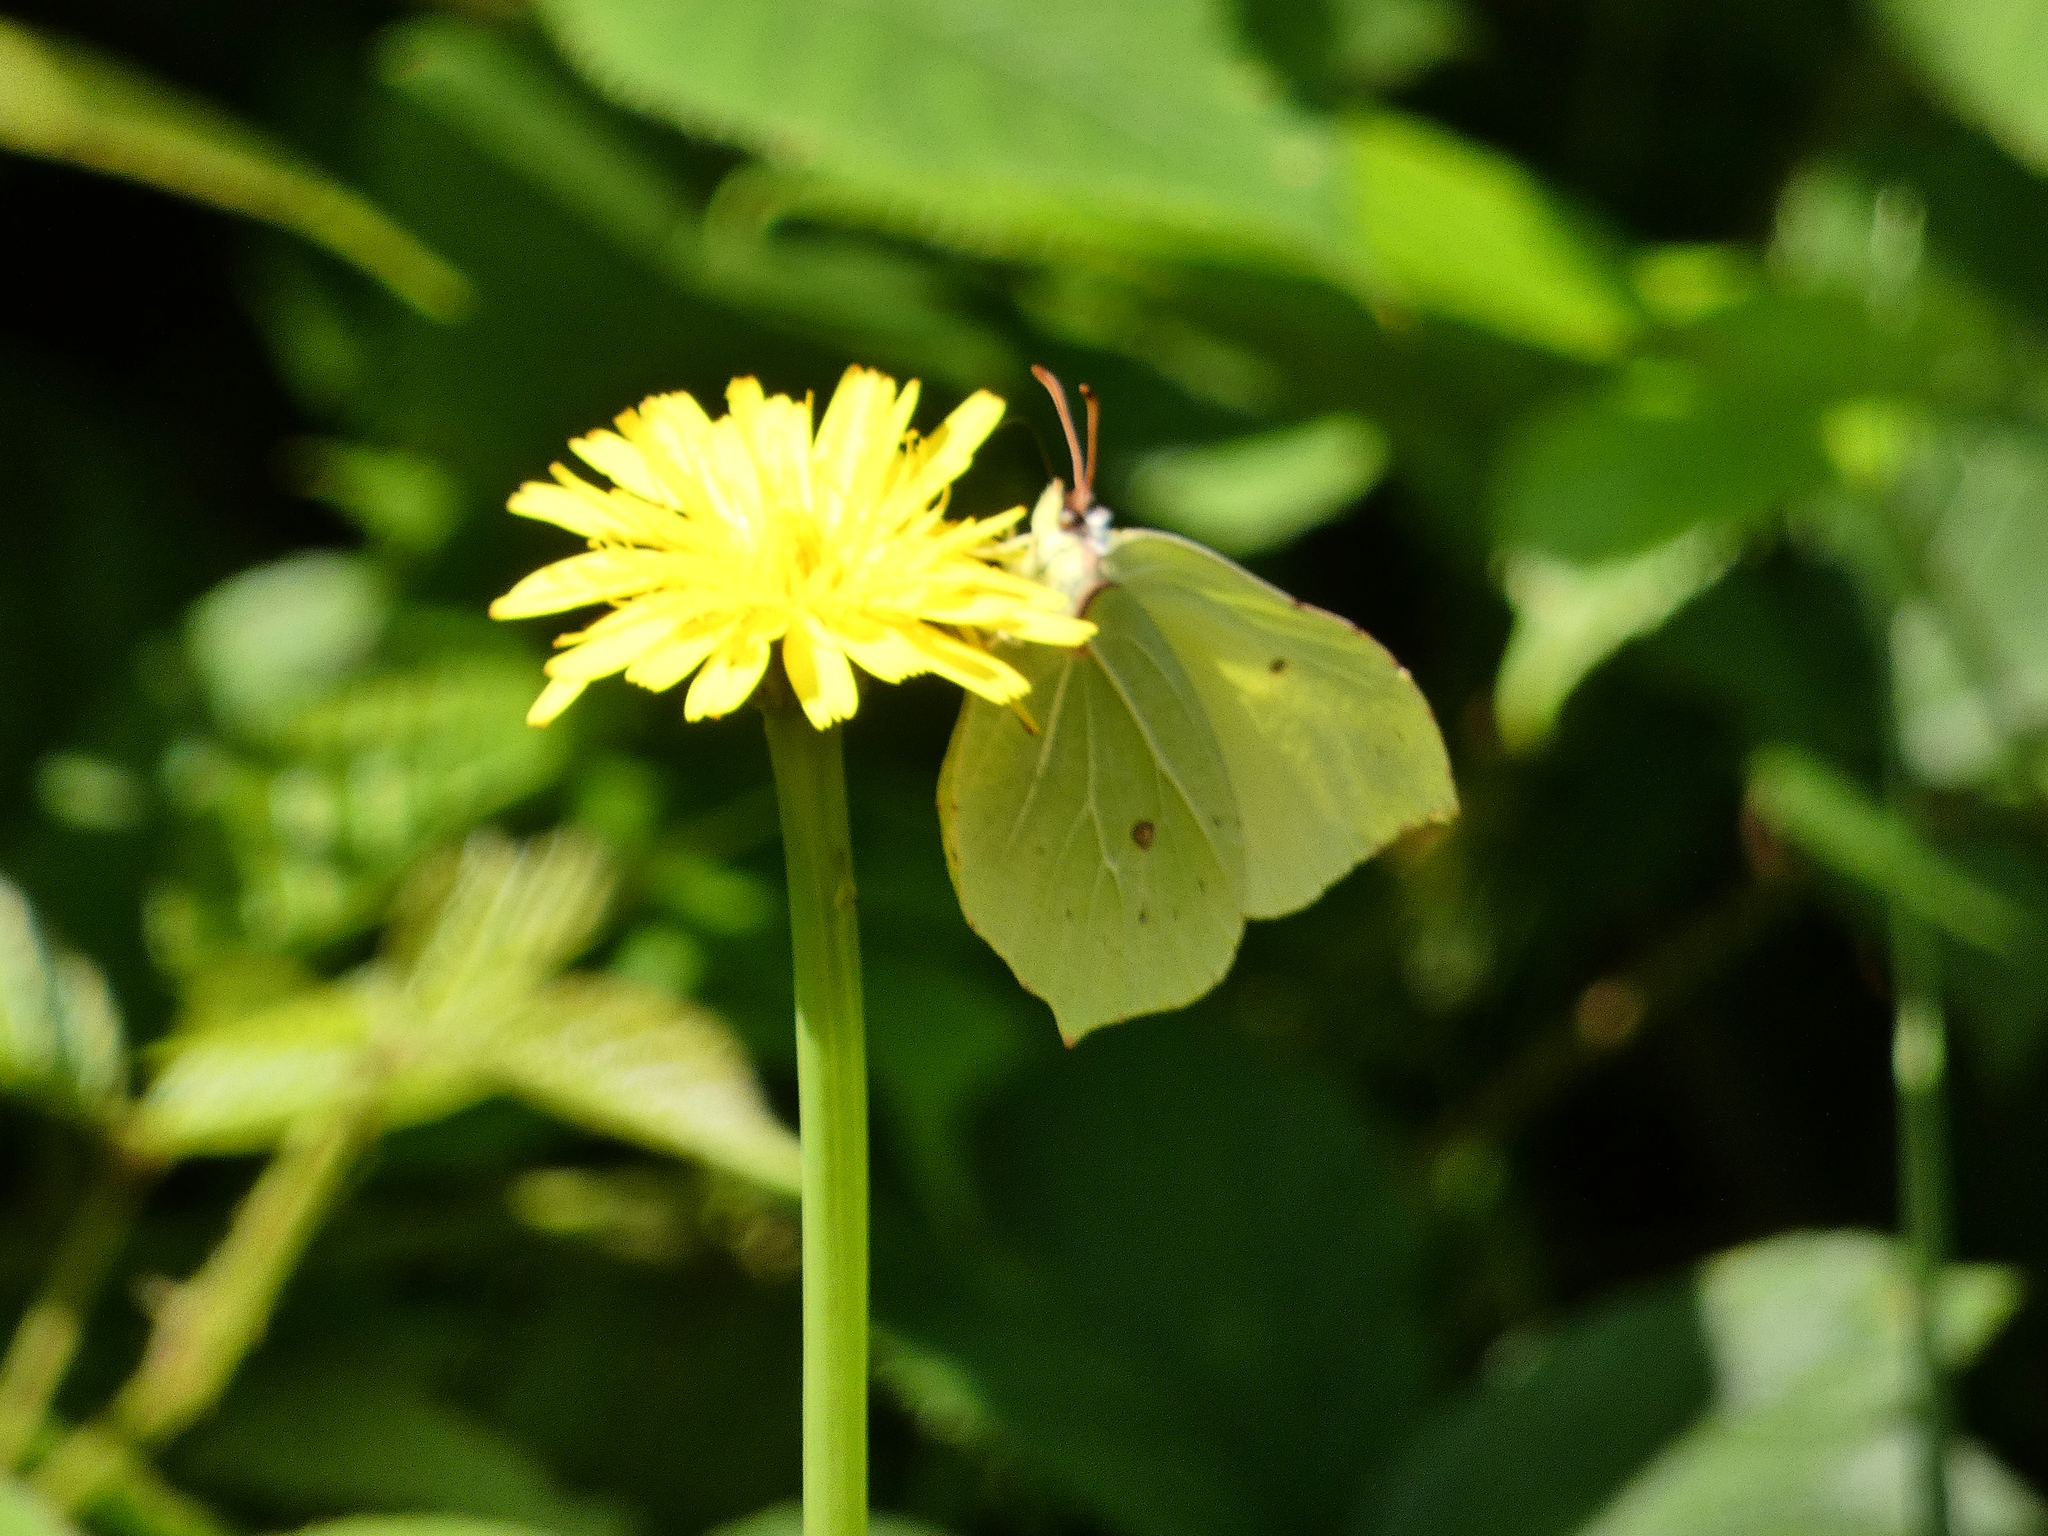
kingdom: Animalia
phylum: Arthropoda
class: Insecta
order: Lepidoptera
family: Pieridae
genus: Gonepteryx
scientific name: Gonepteryx rhamni
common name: Brimstone
